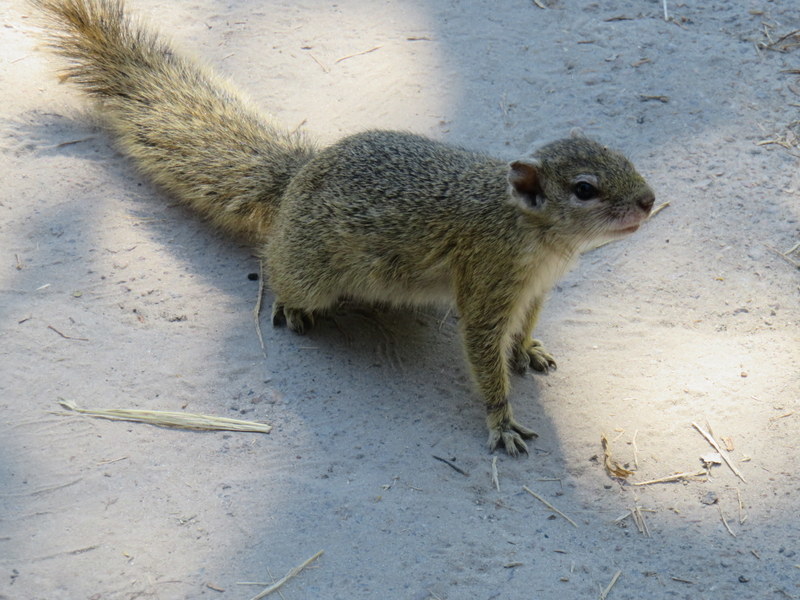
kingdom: Animalia
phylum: Chordata
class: Mammalia
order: Rodentia
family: Sciuridae
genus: Paraxerus
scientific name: Paraxerus cepapi
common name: Smith's bush squirrel
